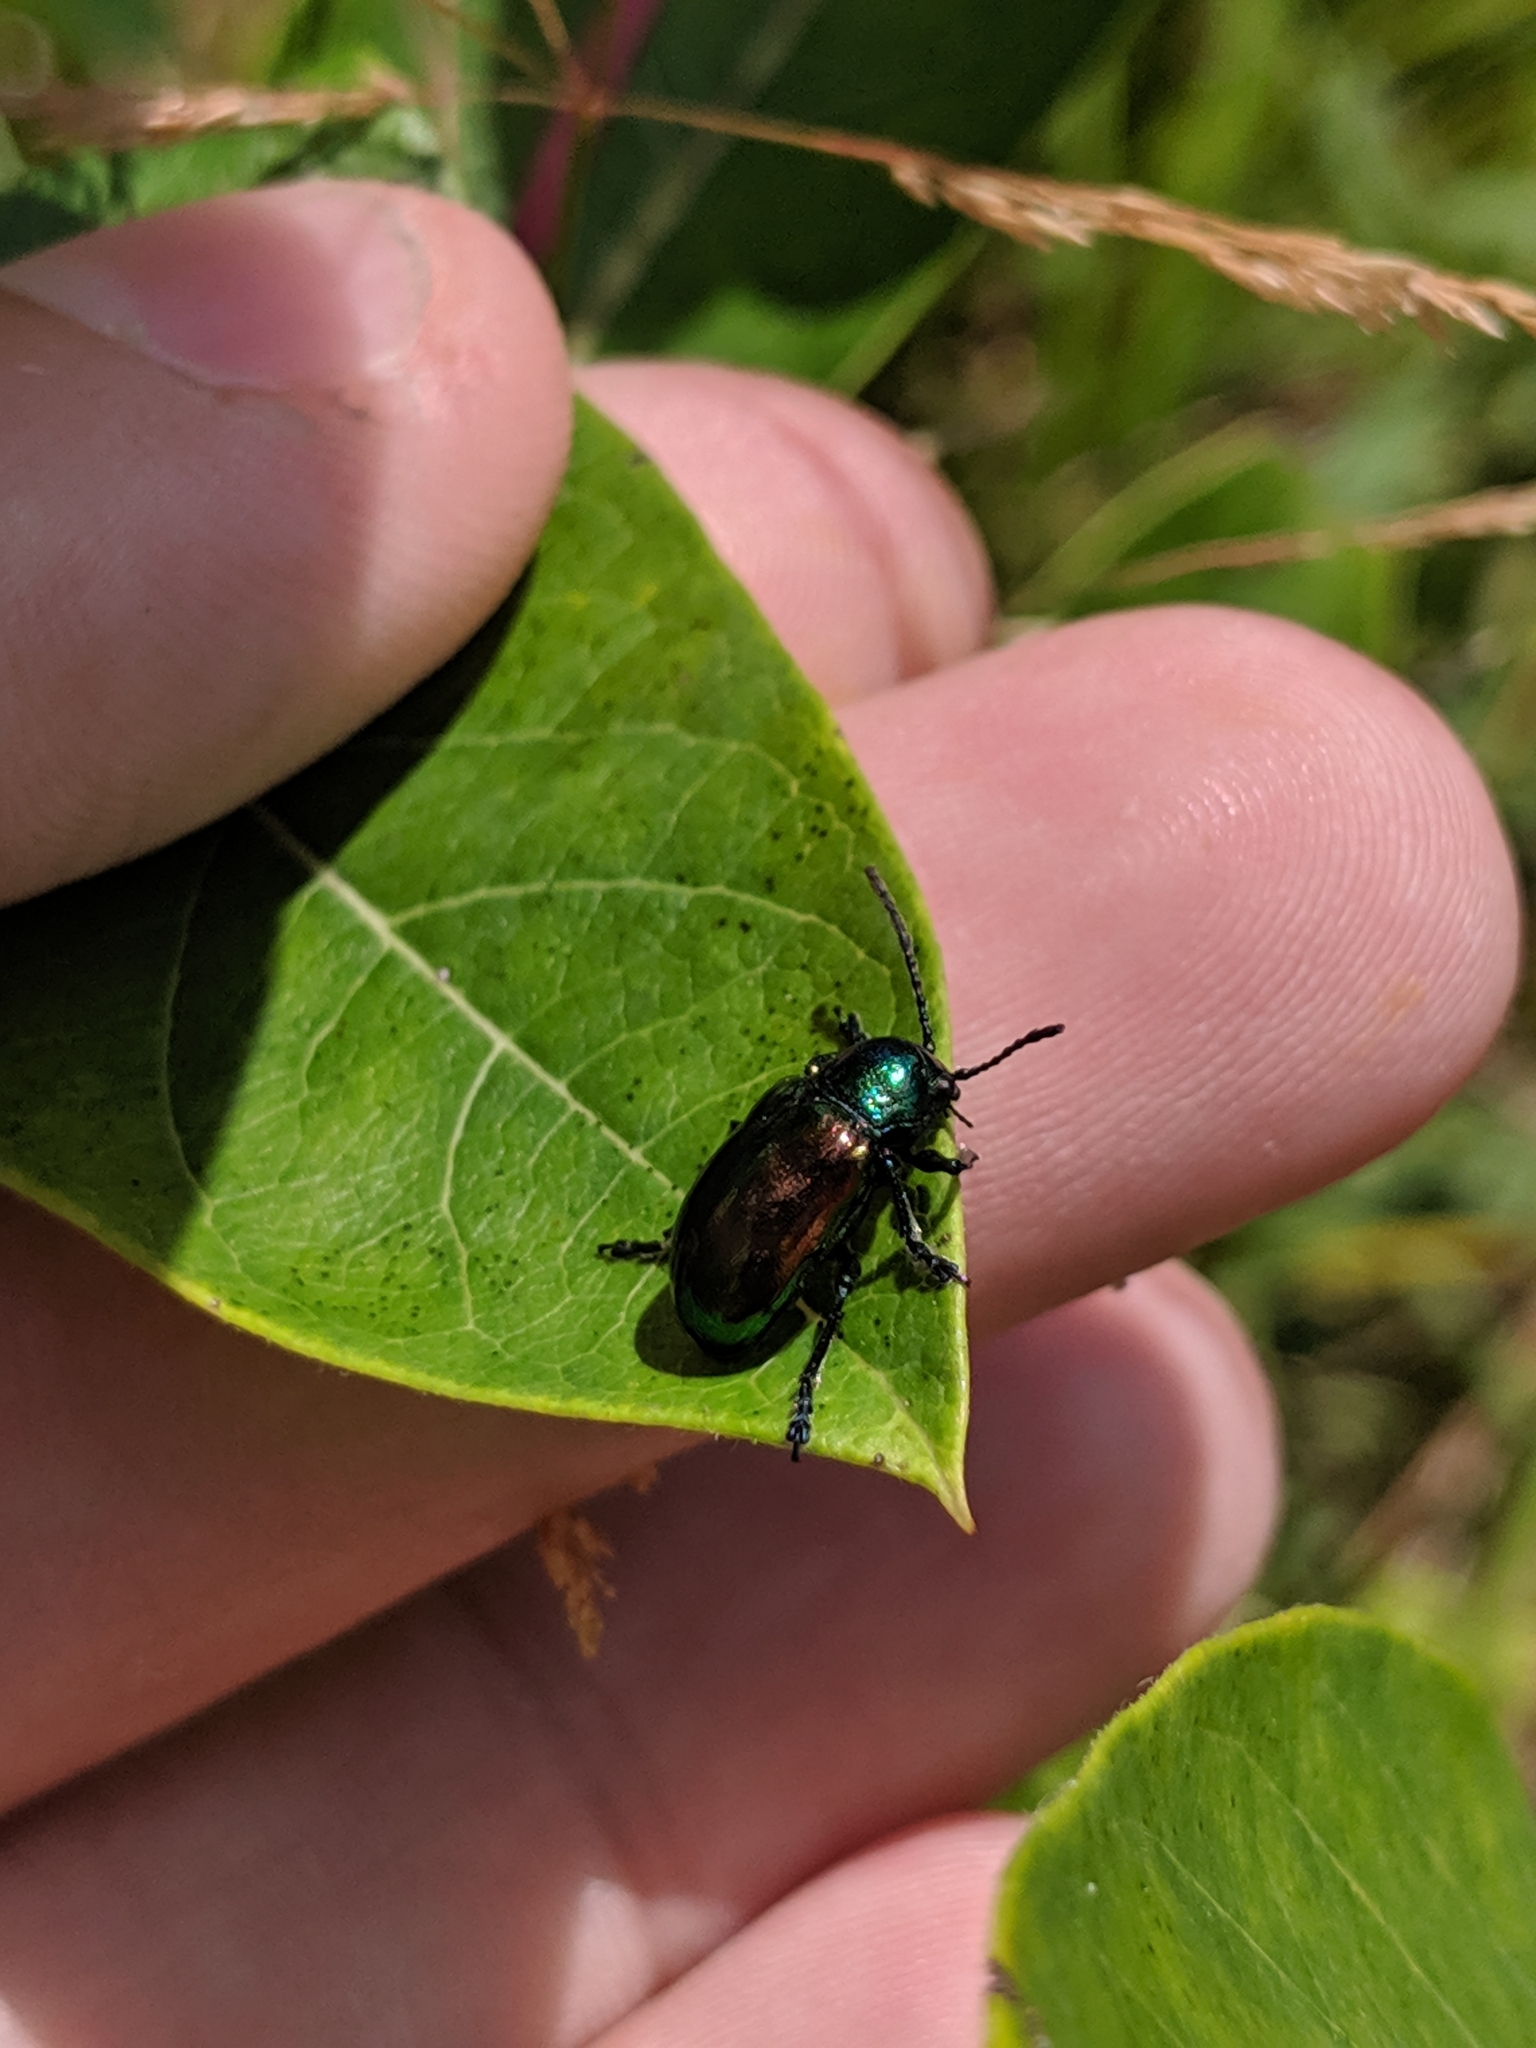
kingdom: Animalia
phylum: Arthropoda
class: Insecta
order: Coleoptera
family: Chrysomelidae
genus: Chrysochus
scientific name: Chrysochus auratus
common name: Dogbane leaf beetle
